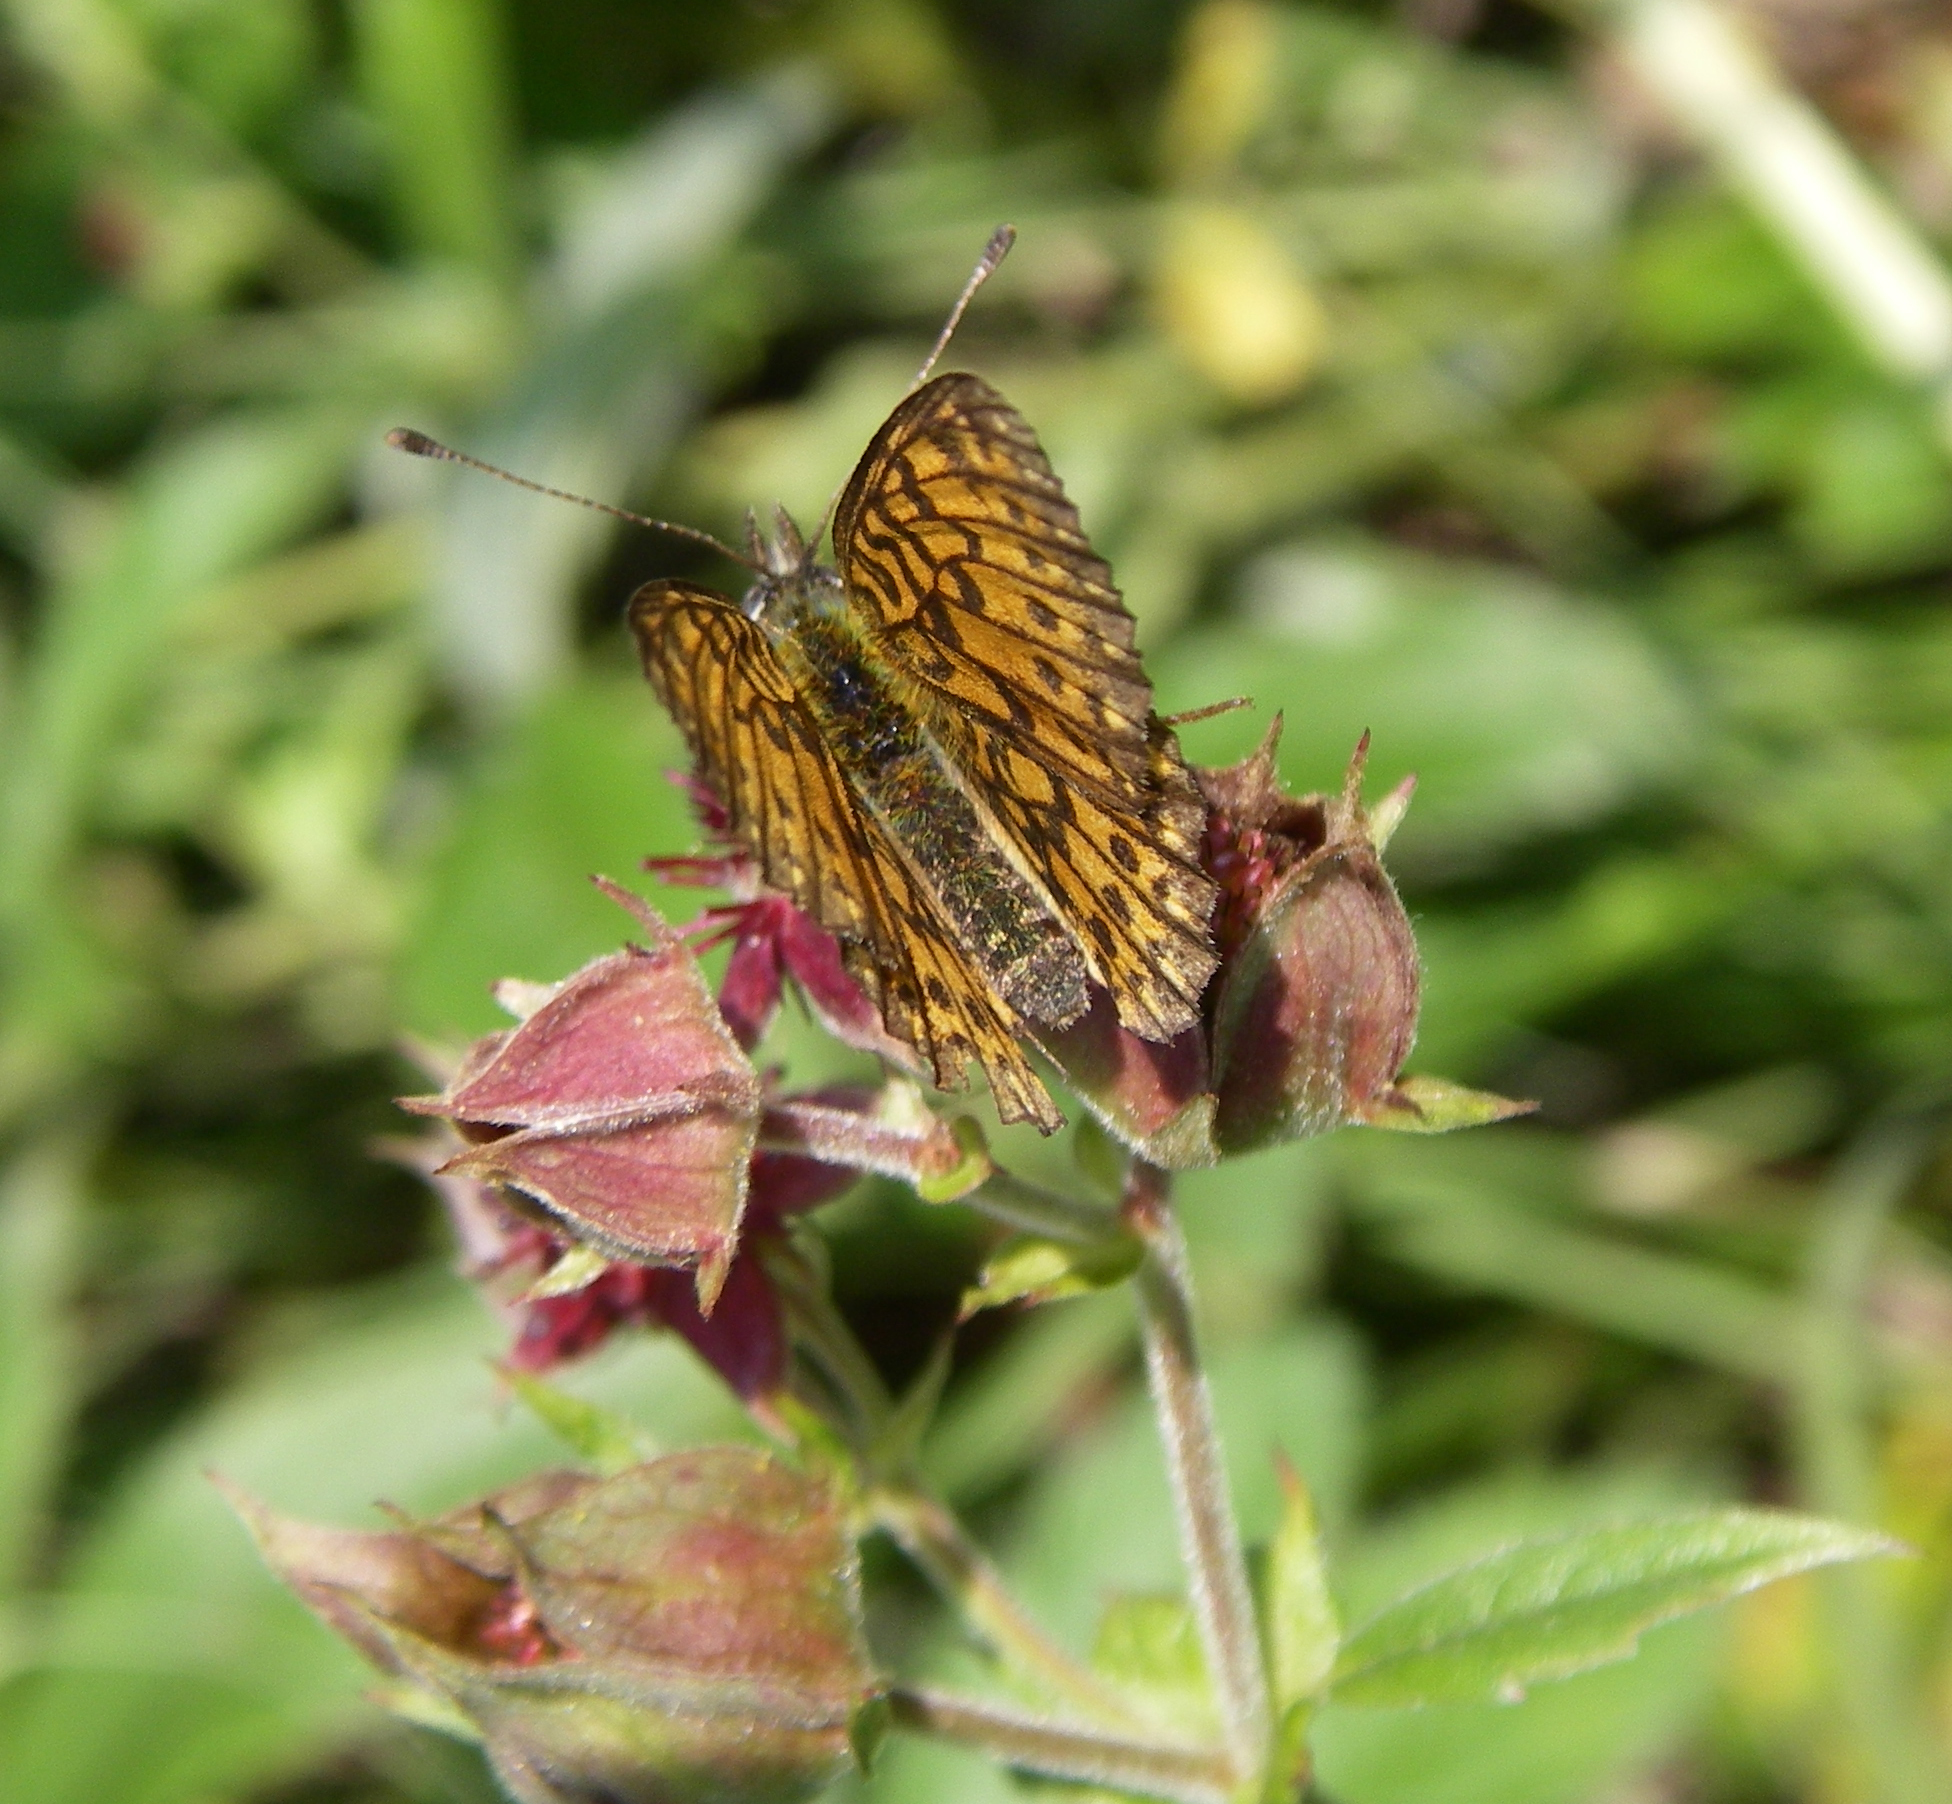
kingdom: Animalia
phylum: Arthropoda
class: Insecta
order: Lepidoptera
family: Nymphalidae
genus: Boloria
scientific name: Boloria selene
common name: Small pearl-bordered fritillary
